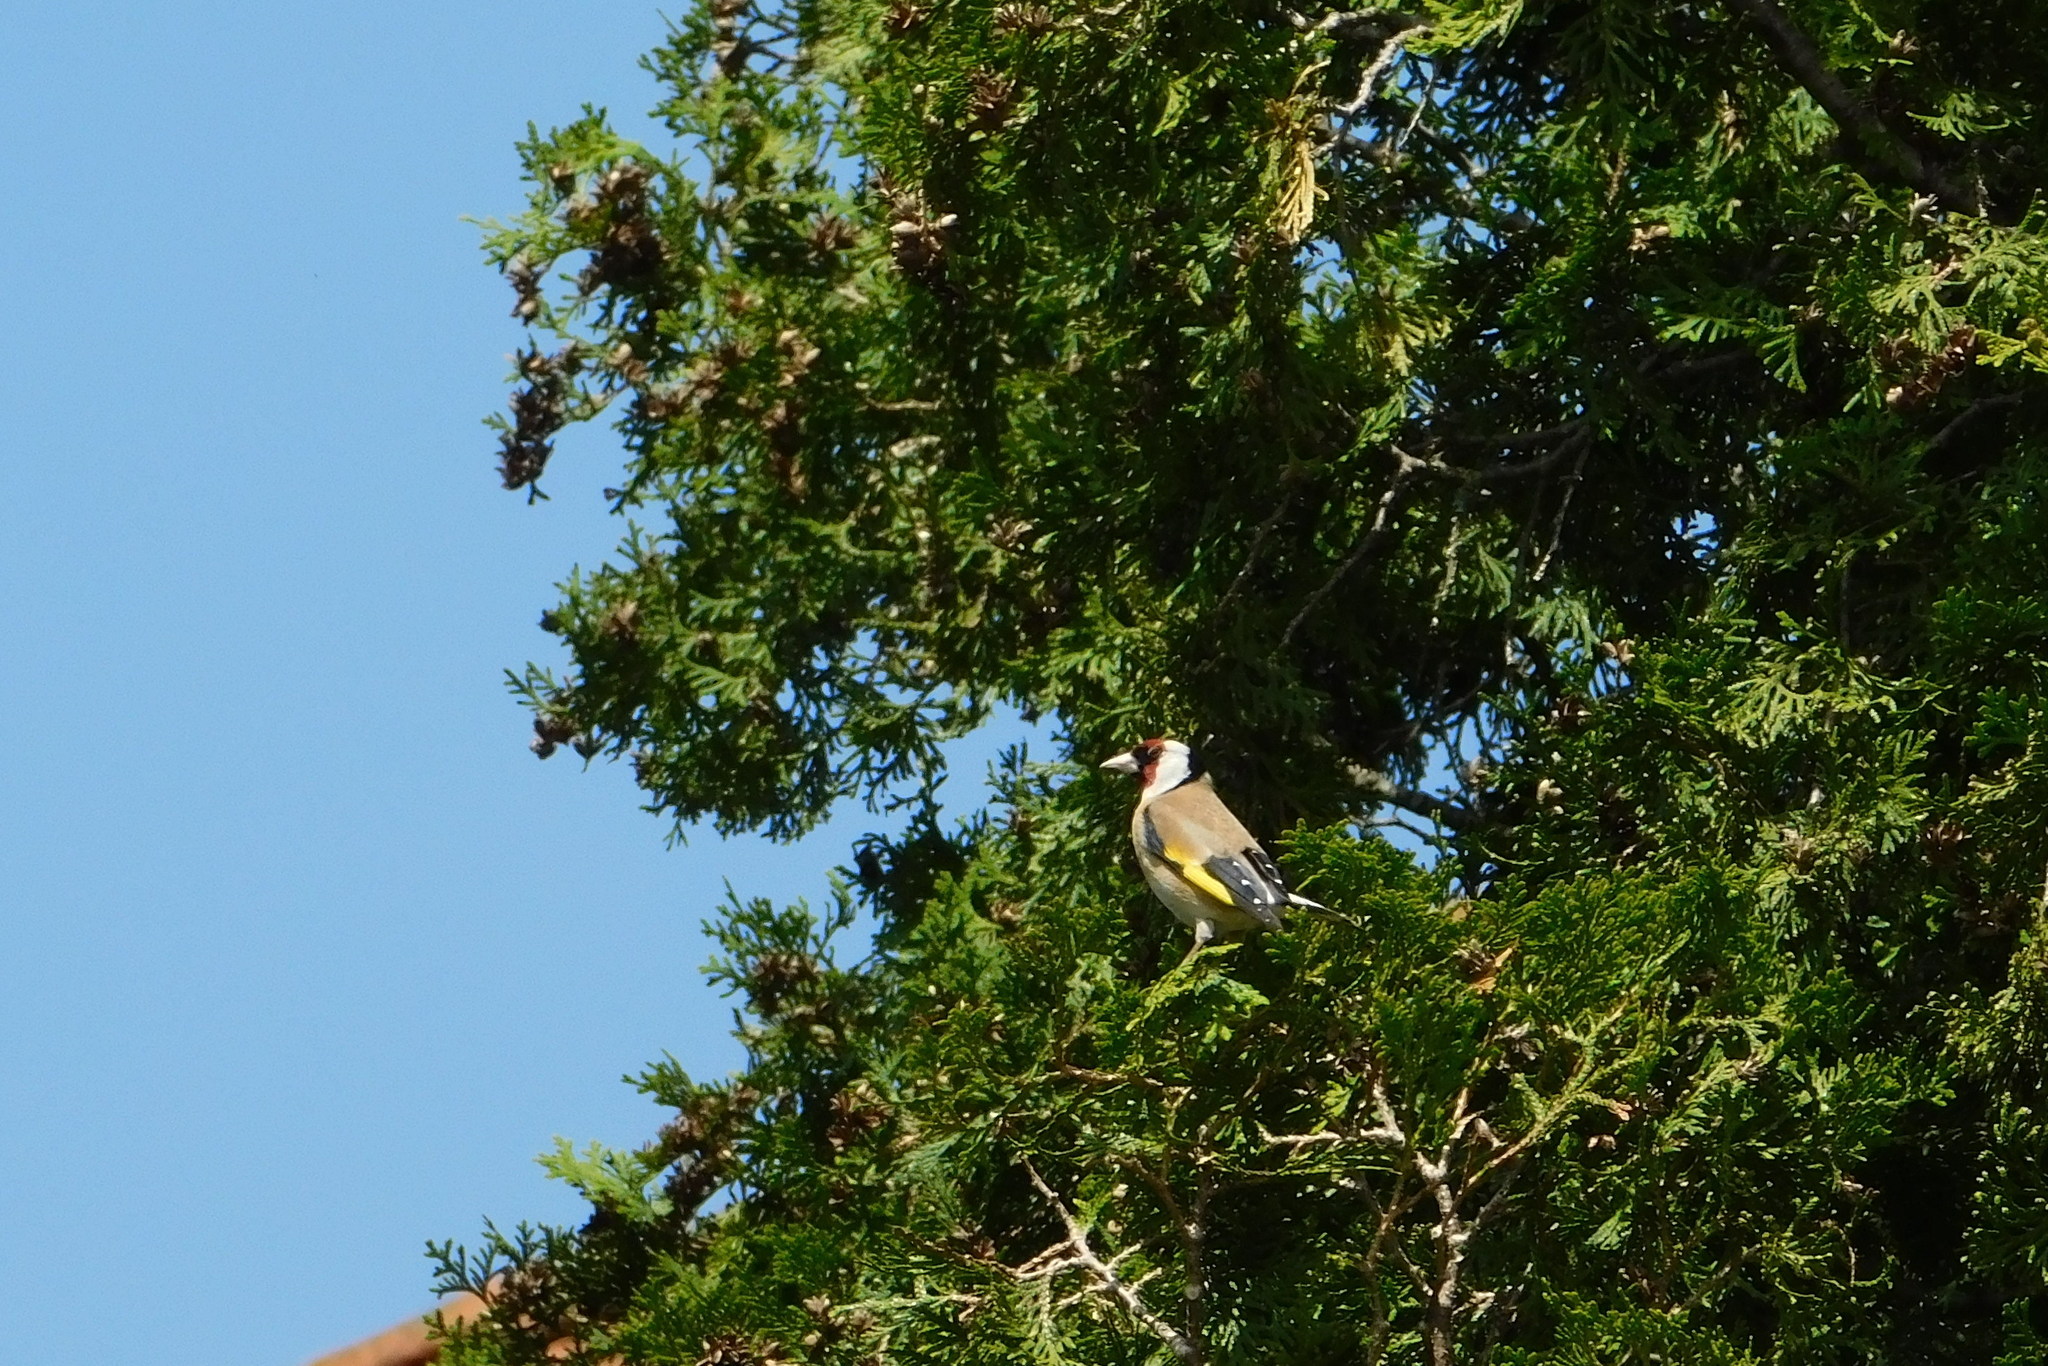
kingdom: Animalia
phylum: Chordata
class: Aves
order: Passeriformes
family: Fringillidae
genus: Carduelis
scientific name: Carduelis carduelis
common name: European goldfinch
